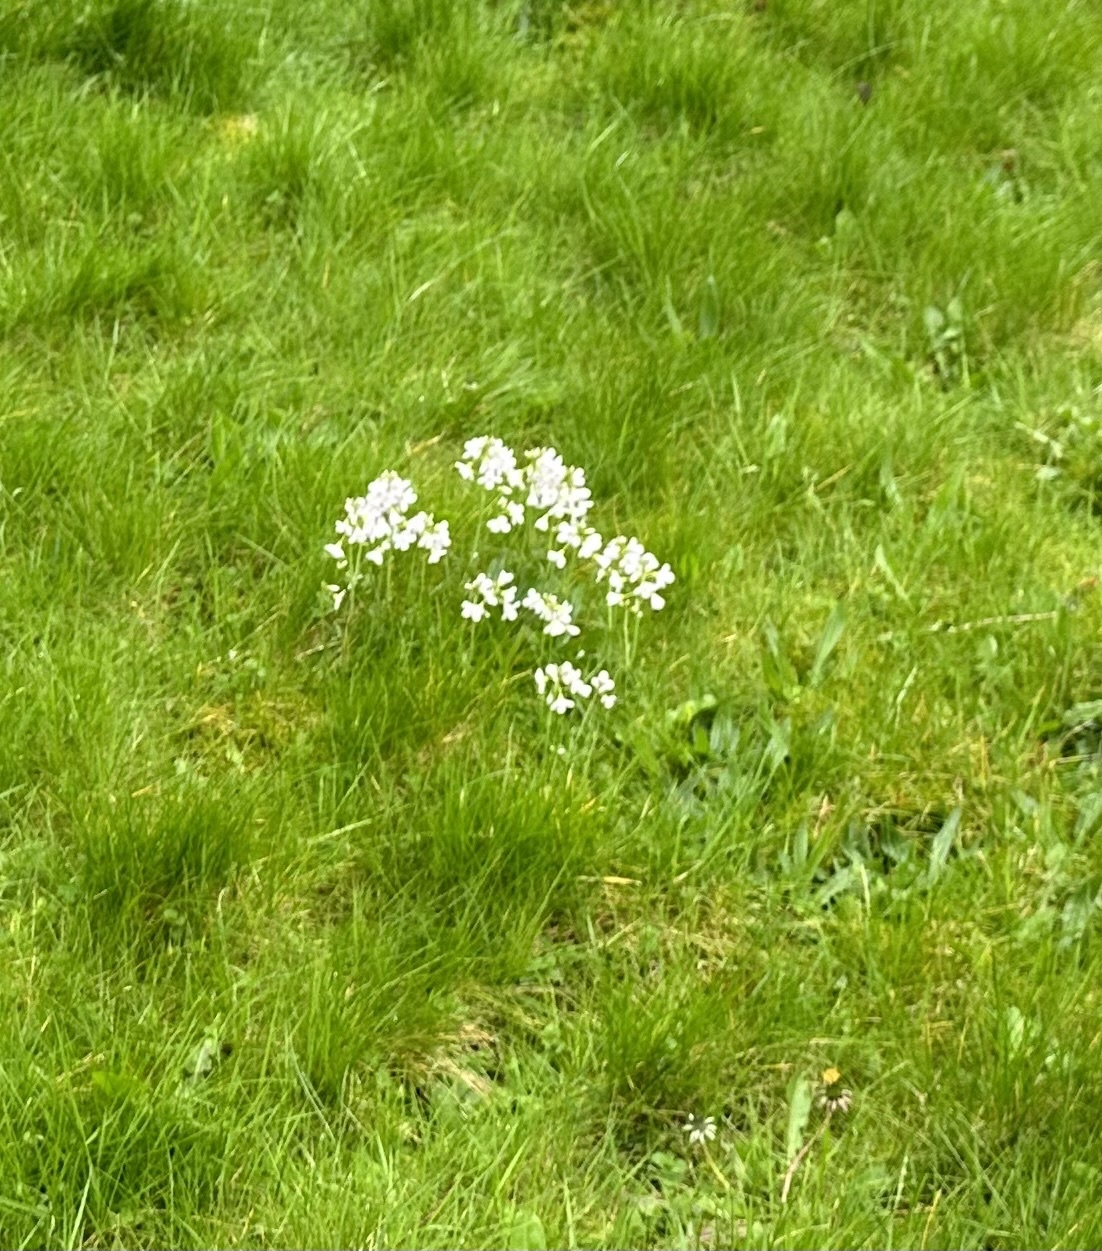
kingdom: Plantae
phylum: Tracheophyta
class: Magnoliopsida
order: Brassicales
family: Brassicaceae
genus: Cardamine
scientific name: Cardamine pratensis
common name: Cuckoo flower
